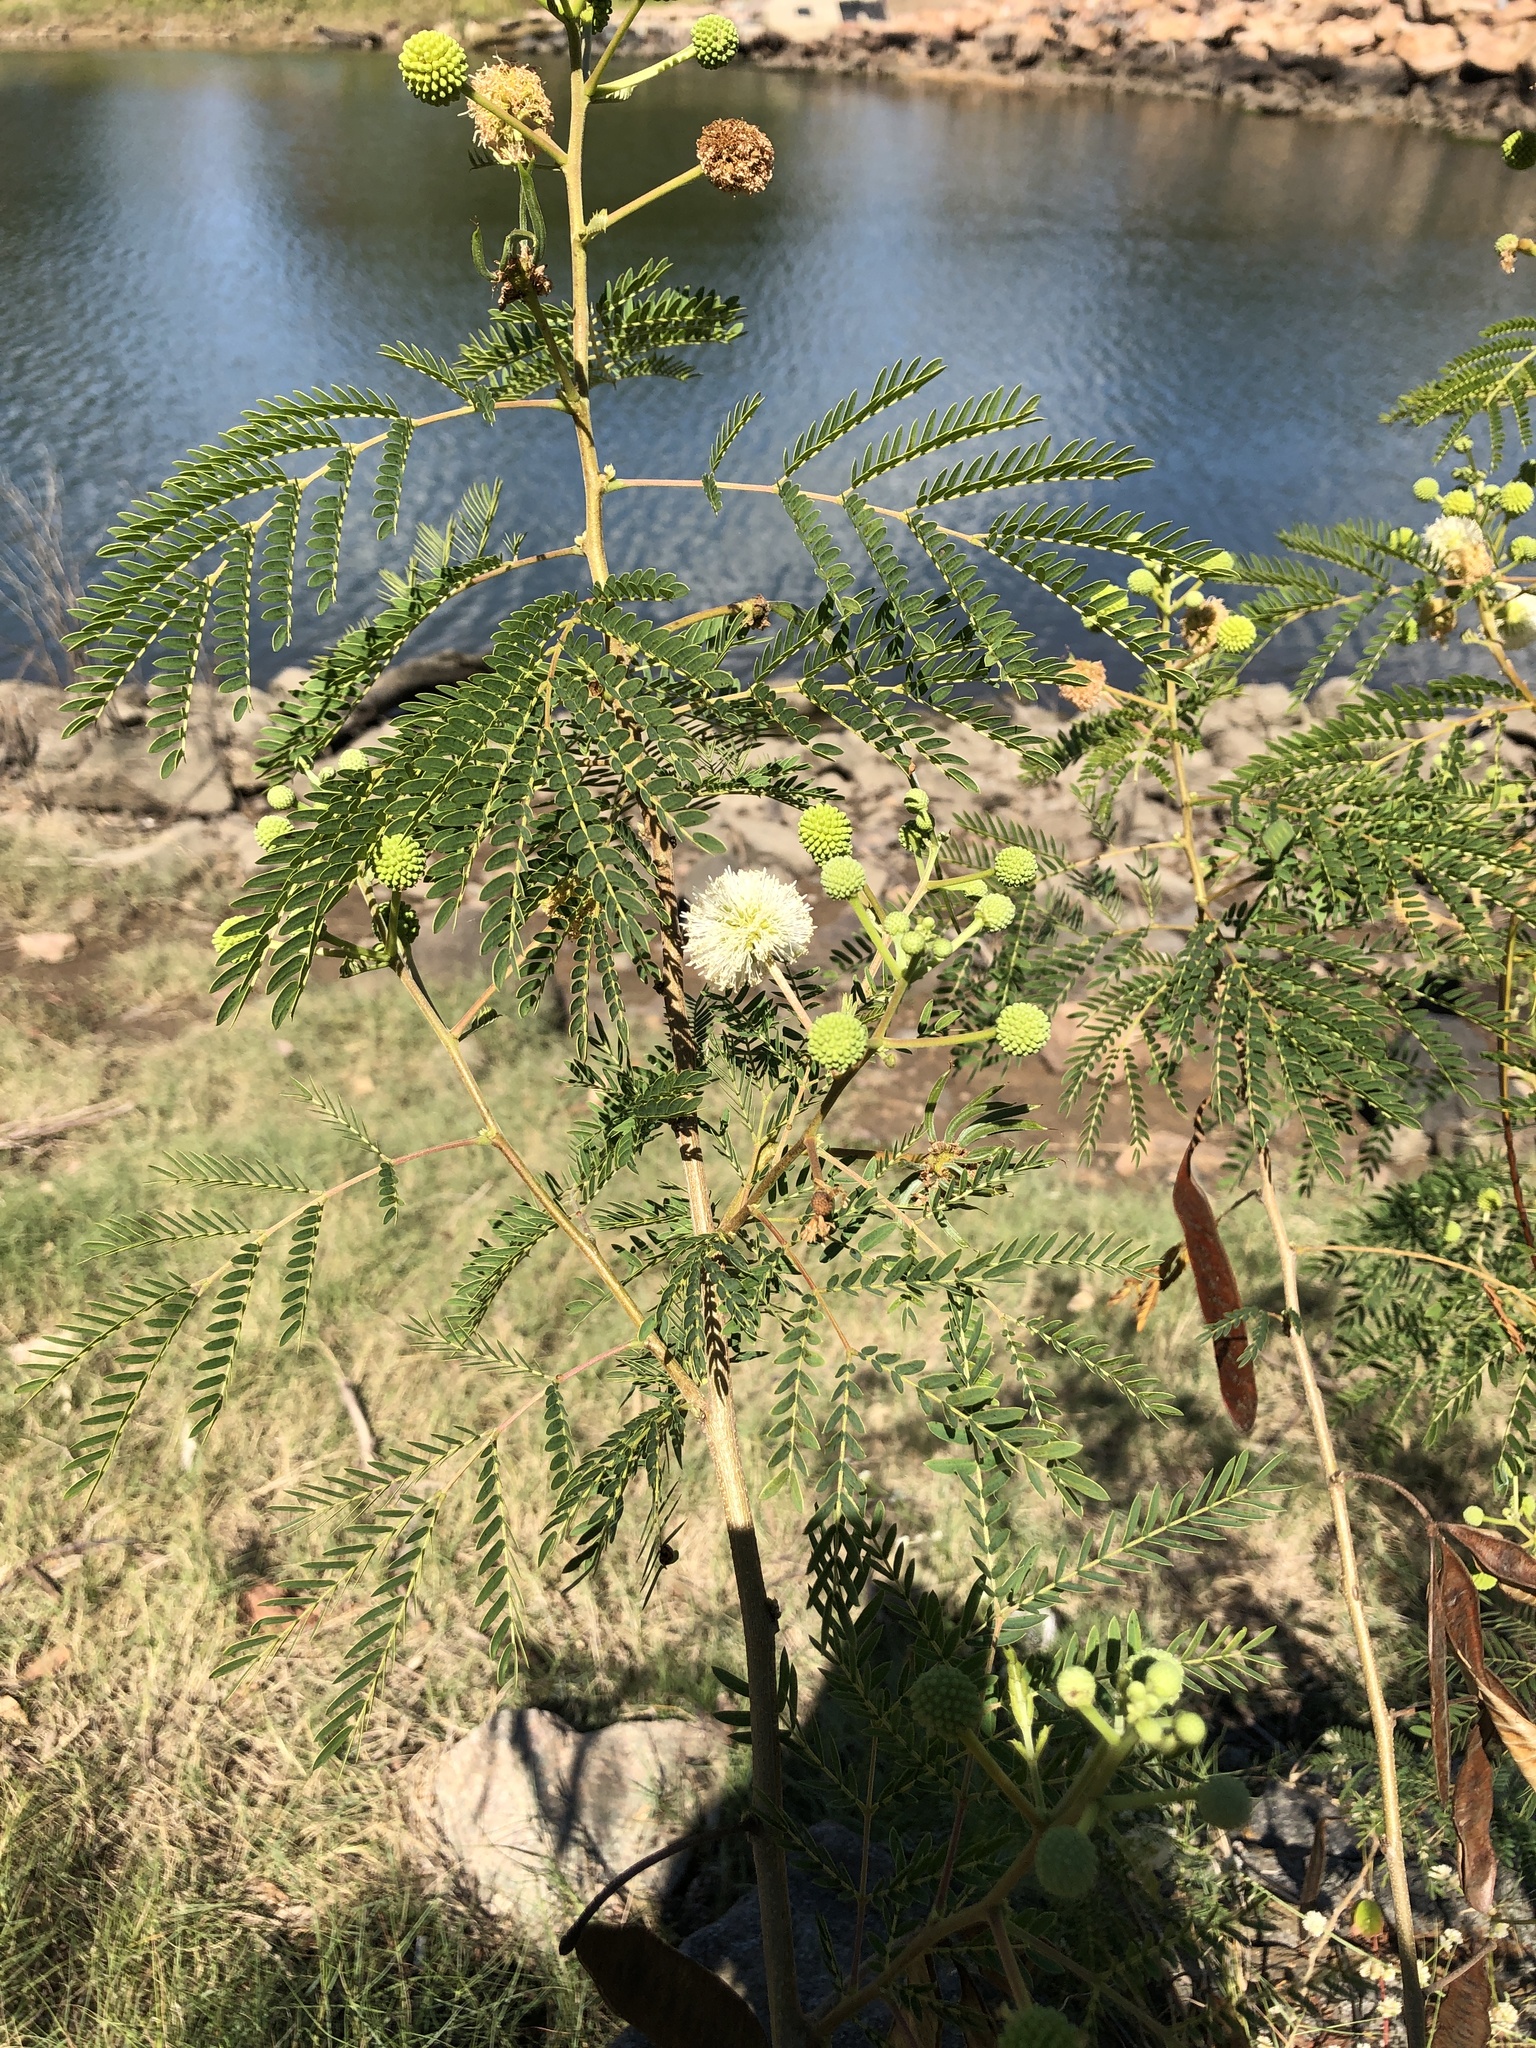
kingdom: Plantae
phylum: Tracheophyta
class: Magnoliopsida
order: Fabales
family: Fabaceae
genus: Leucaena
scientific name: Leucaena leucocephala
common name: White leadtree
